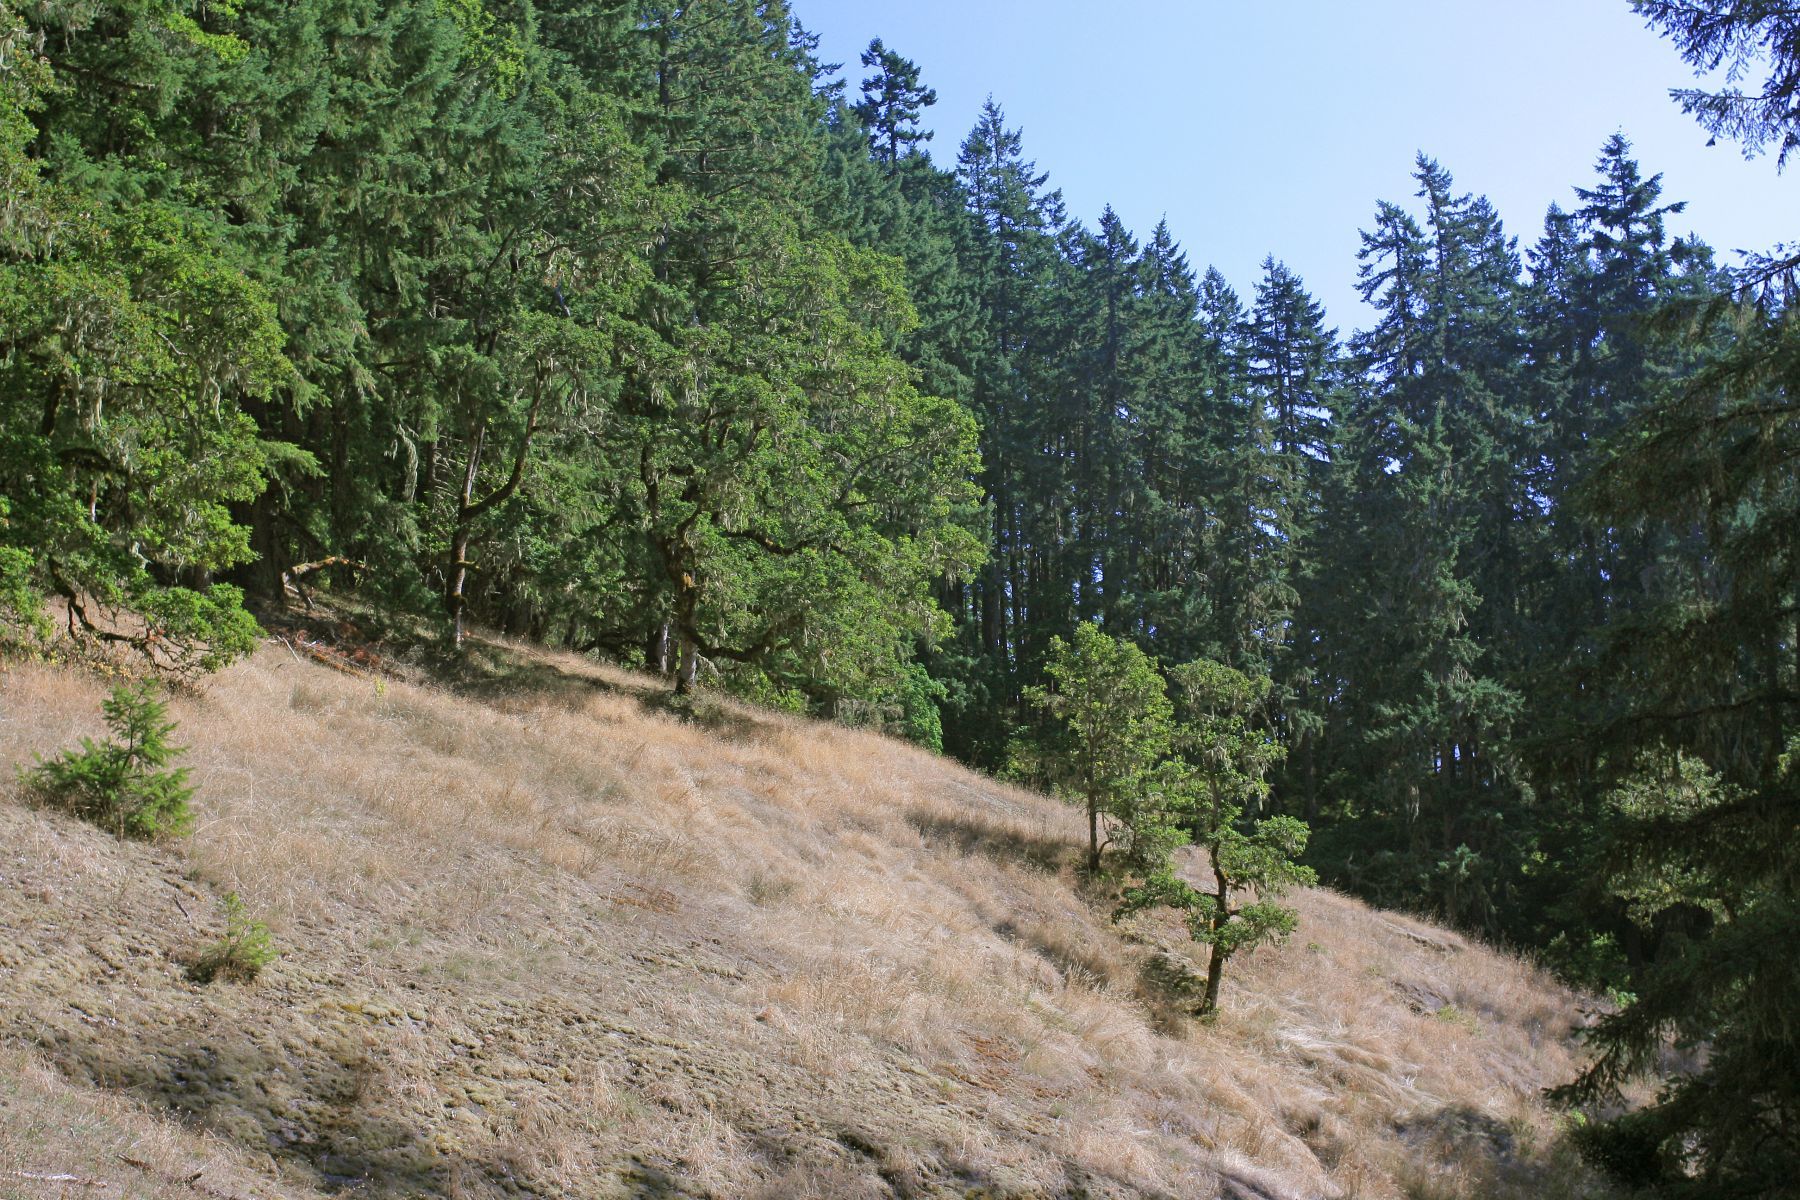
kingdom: Plantae
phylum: Tracheophyta
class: Magnoliopsida
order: Fagales
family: Fagaceae
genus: Quercus
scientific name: Quercus garryana
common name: Garry oak
